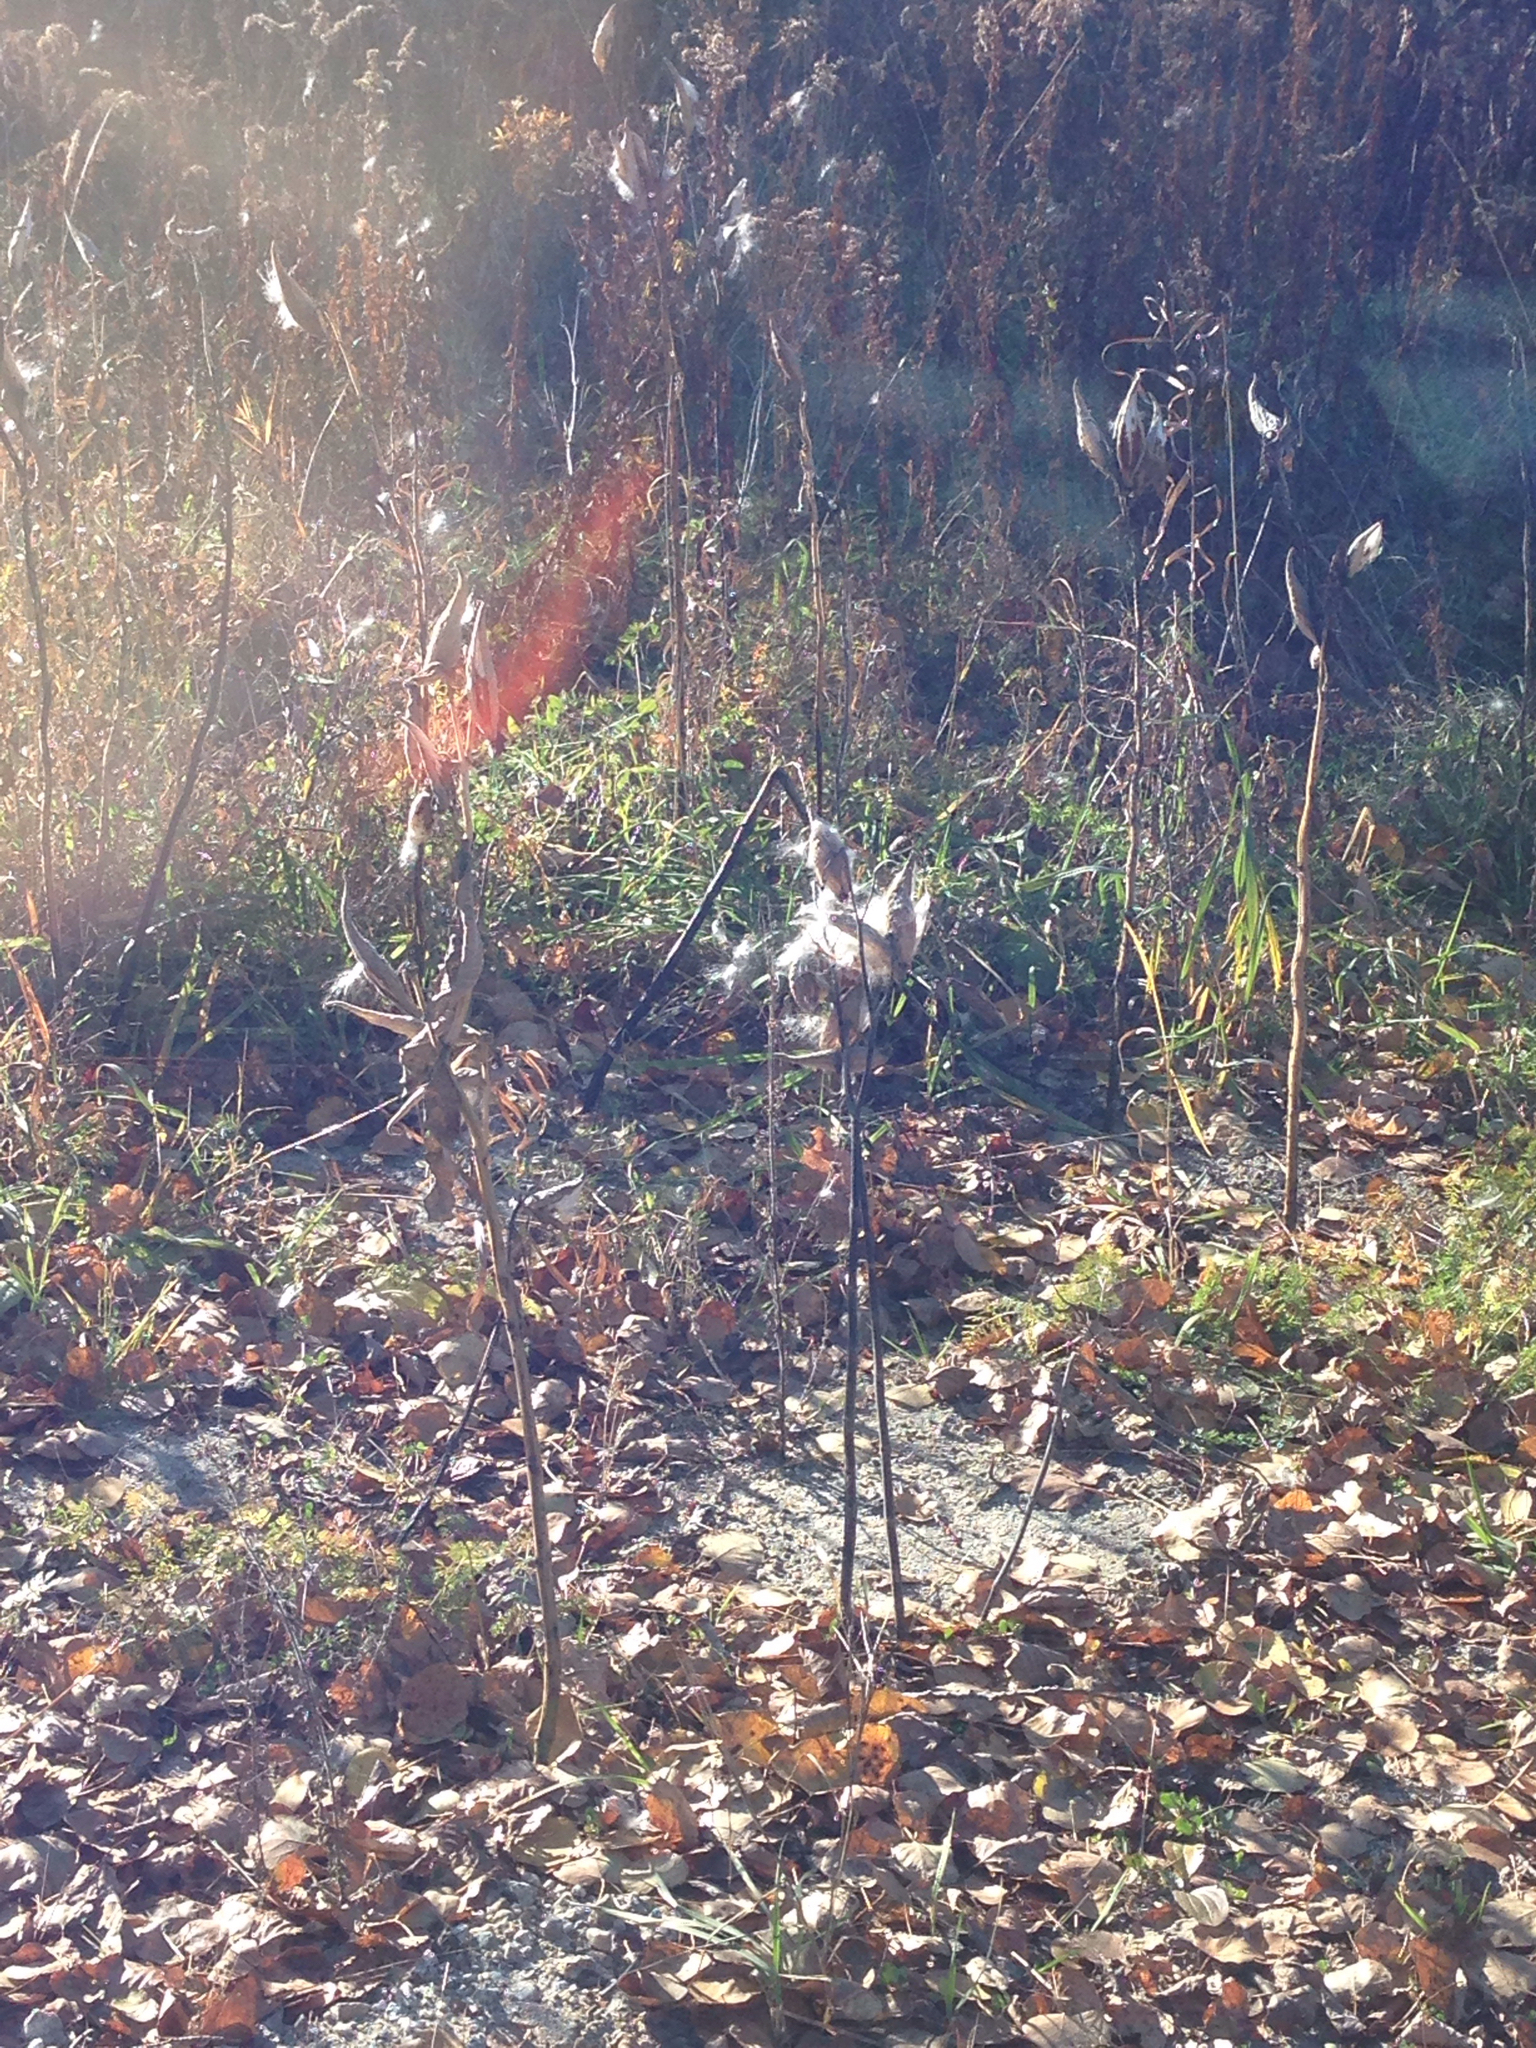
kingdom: Plantae
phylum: Tracheophyta
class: Magnoliopsida
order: Gentianales
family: Apocynaceae
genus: Asclepias
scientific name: Asclepias syriaca
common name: Common milkweed
